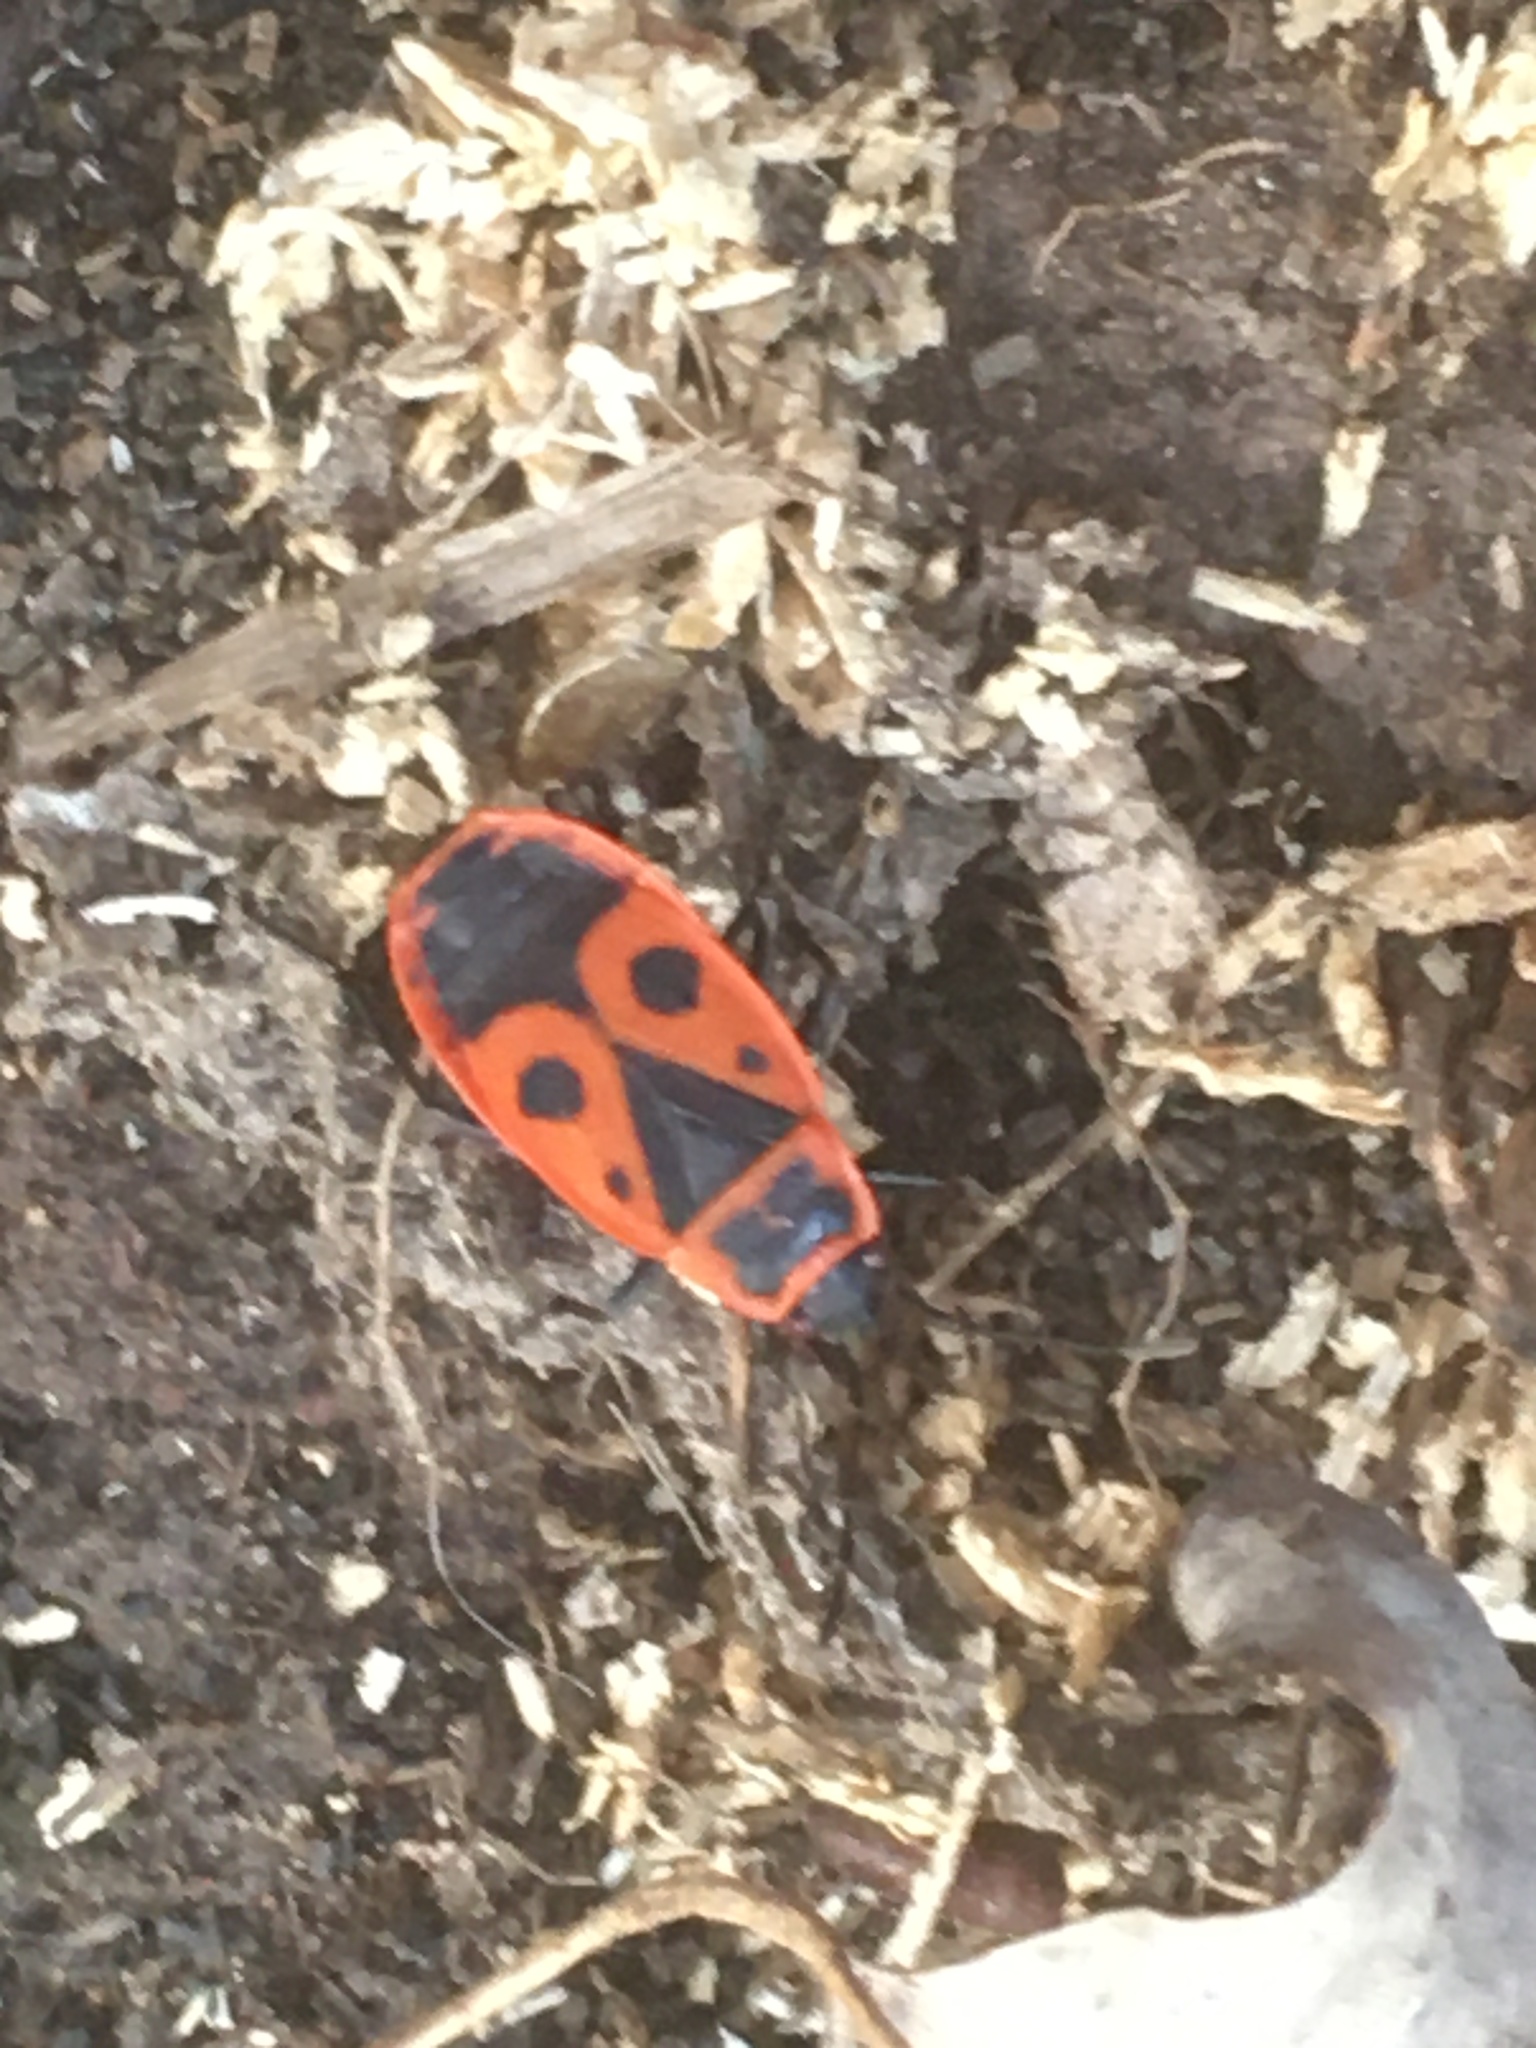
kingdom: Animalia
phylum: Arthropoda
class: Insecta
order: Hemiptera
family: Pyrrhocoridae
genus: Pyrrhocoris
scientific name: Pyrrhocoris apterus
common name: Firebug
